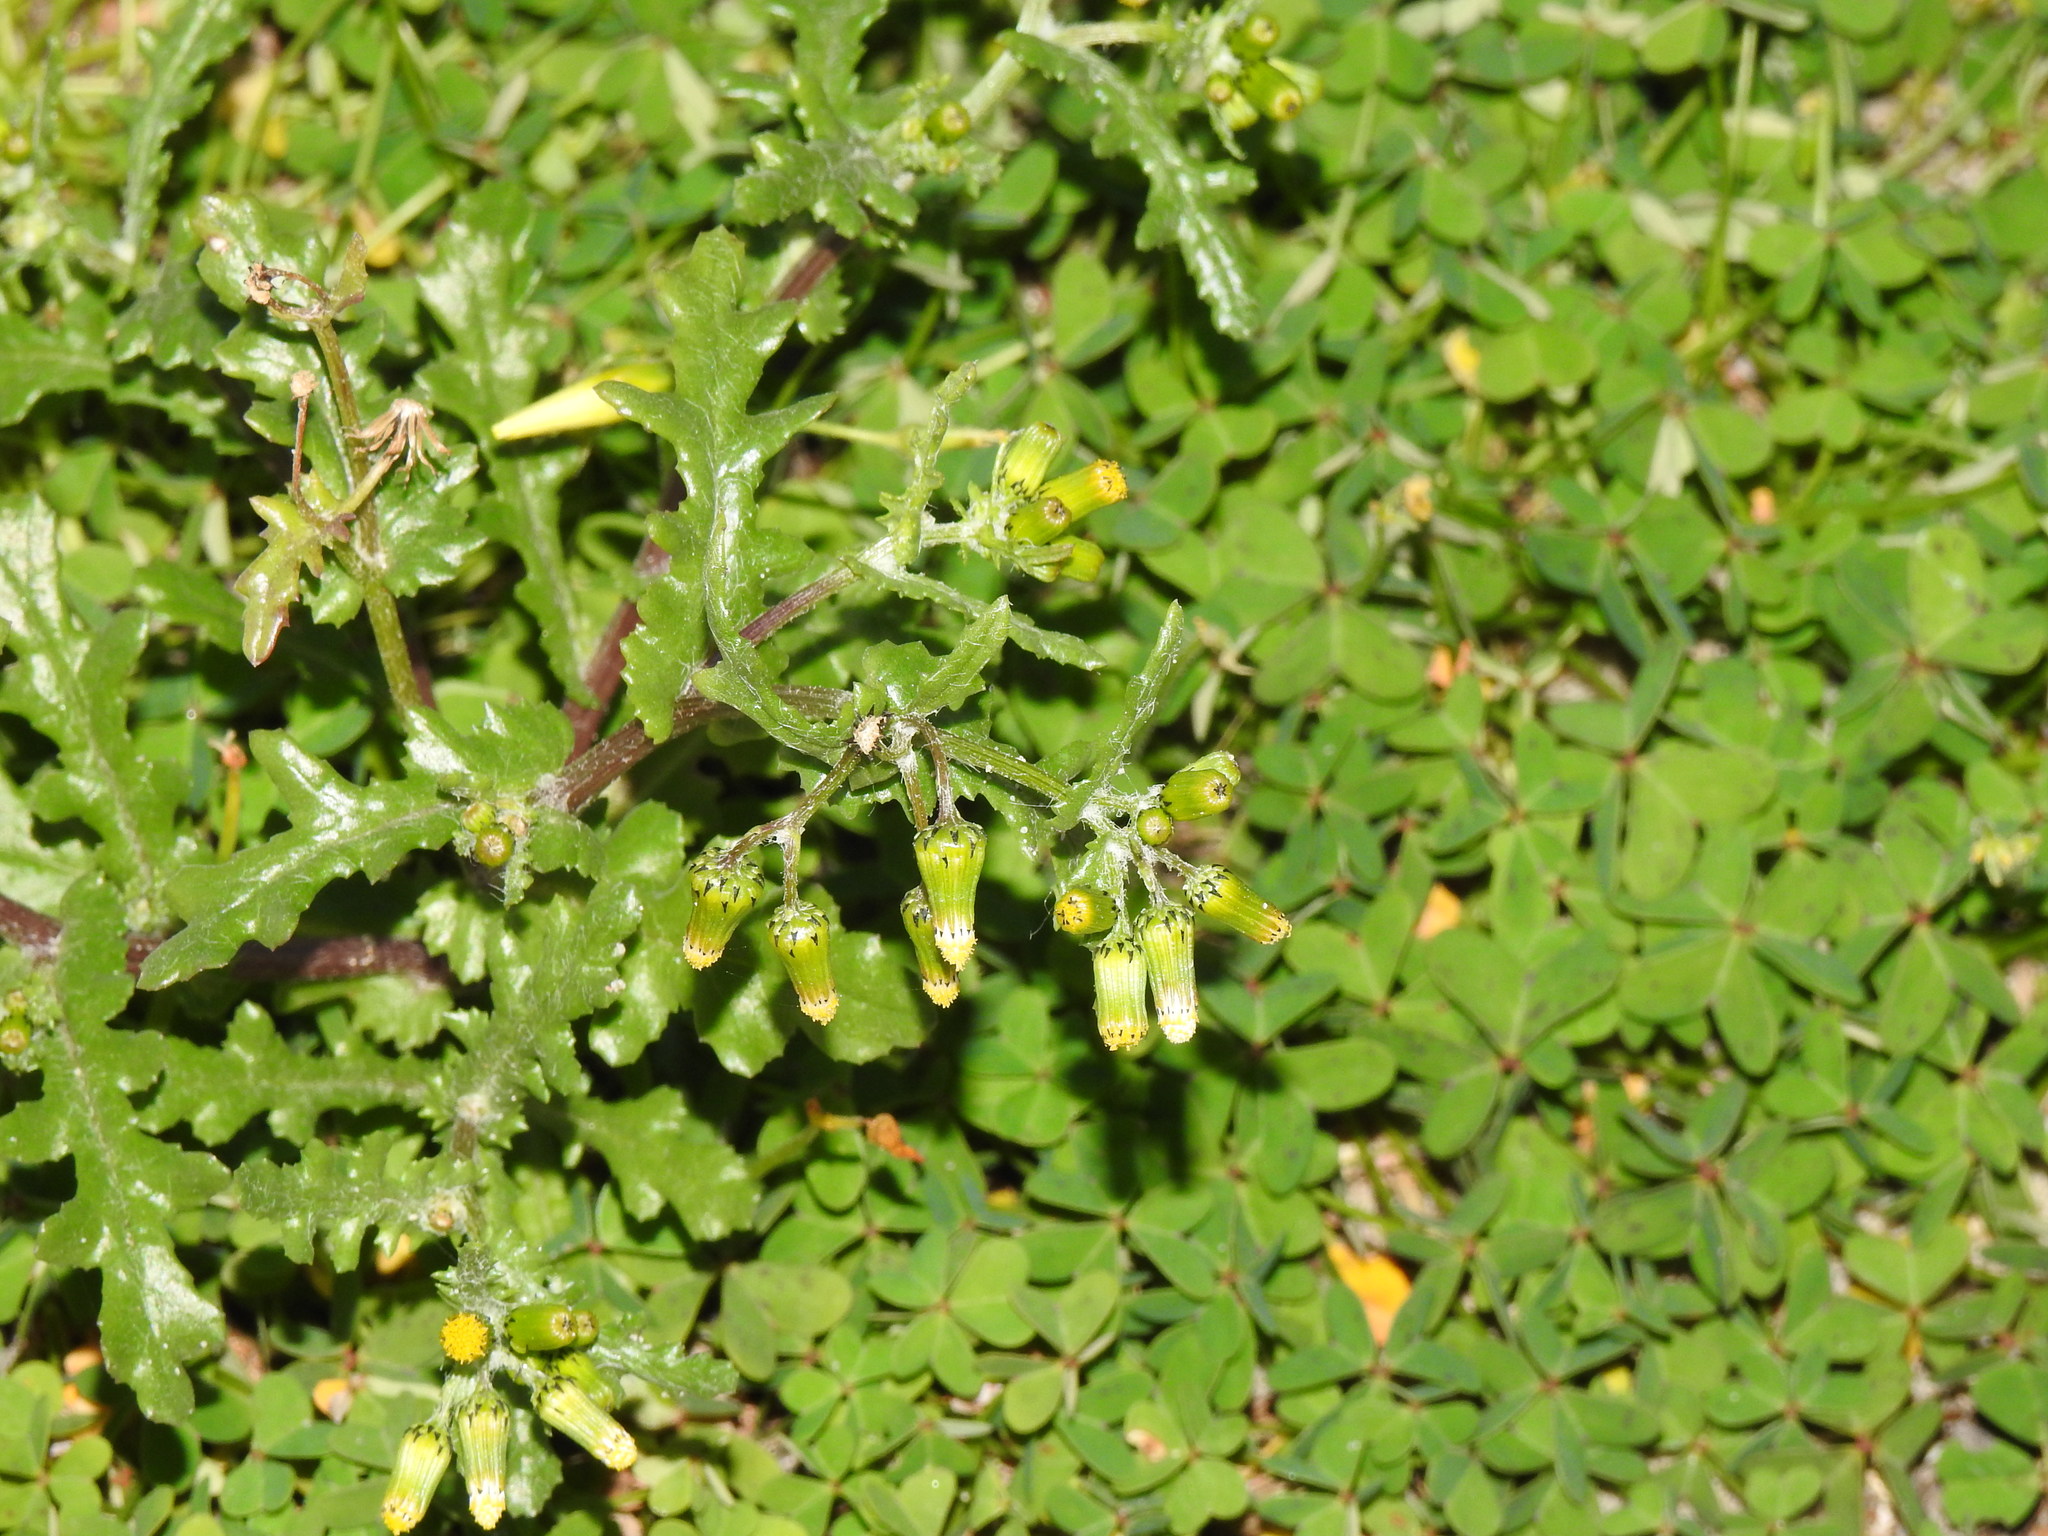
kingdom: Plantae
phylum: Tracheophyta
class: Magnoliopsida
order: Asterales
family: Asteraceae
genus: Senecio
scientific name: Senecio vulgaris
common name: Old-man-in-the-spring
